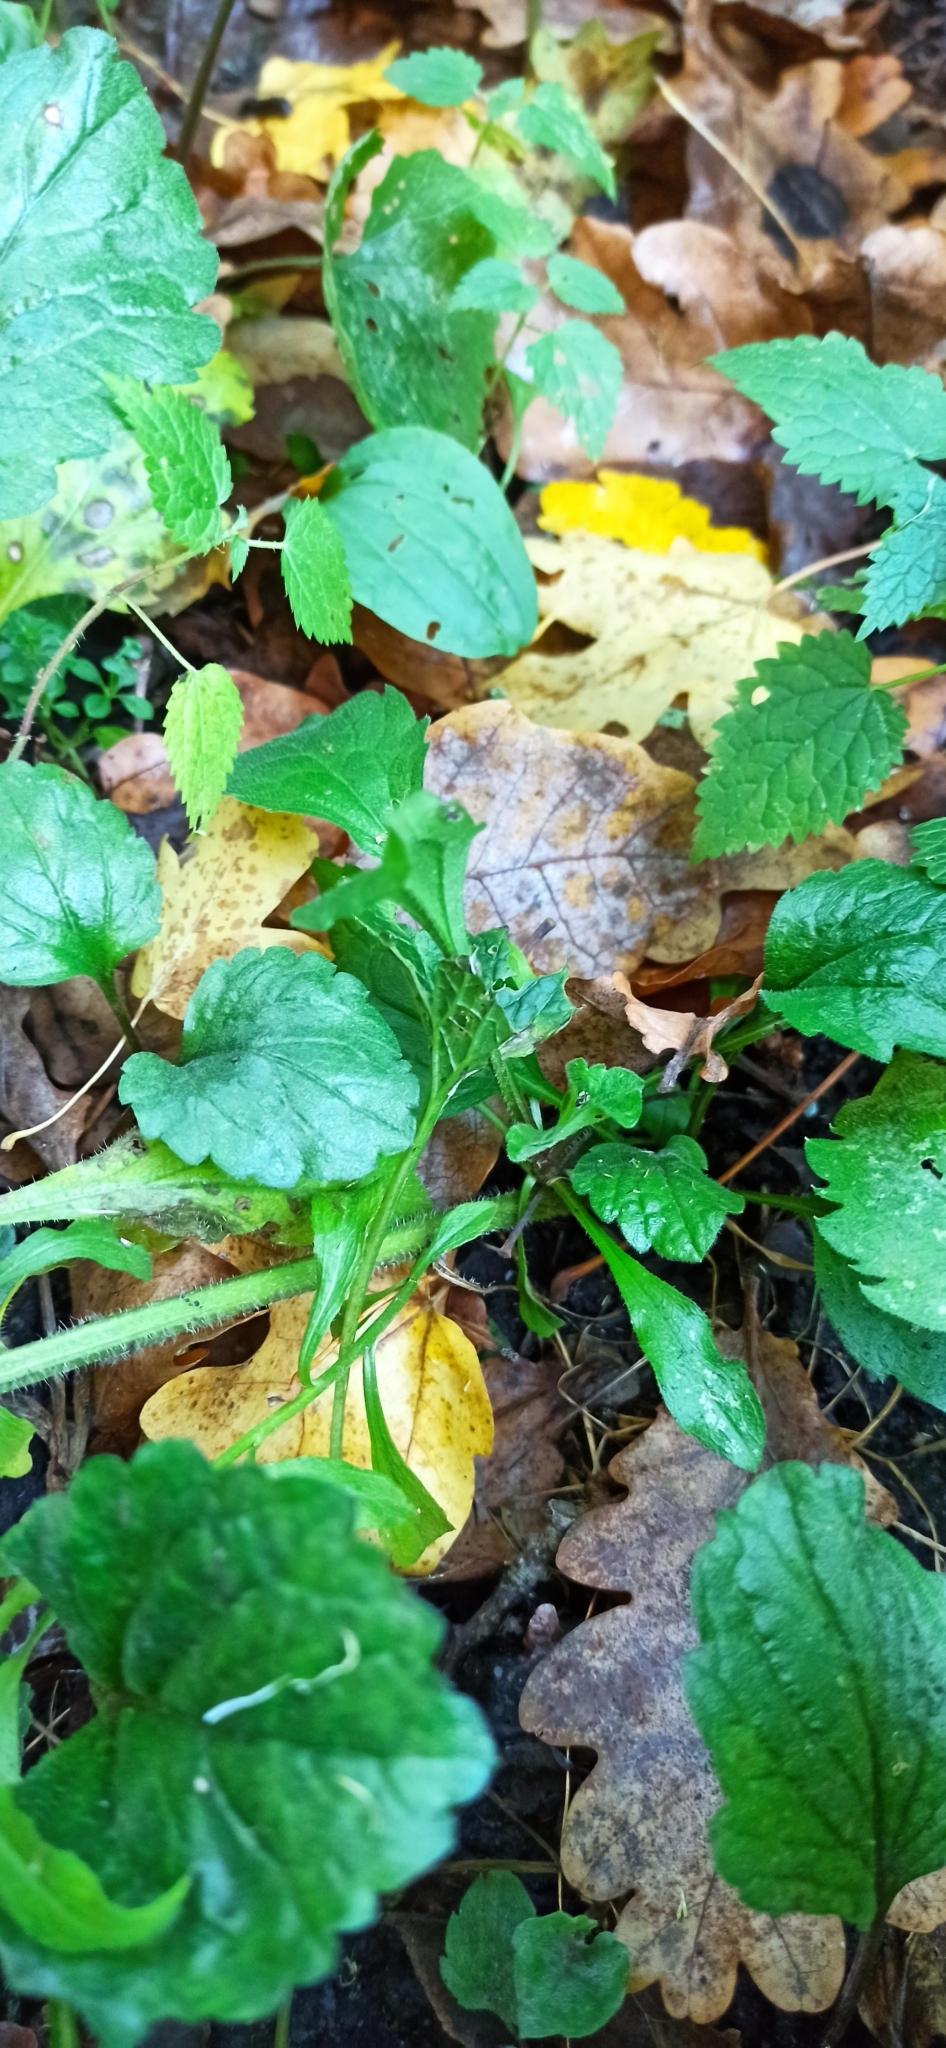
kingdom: Plantae
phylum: Tracheophyta
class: Magnoliopsida
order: Asterales
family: Asteraceae
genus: Erigeron
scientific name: Erigeron annuus
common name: Tall fleabane
